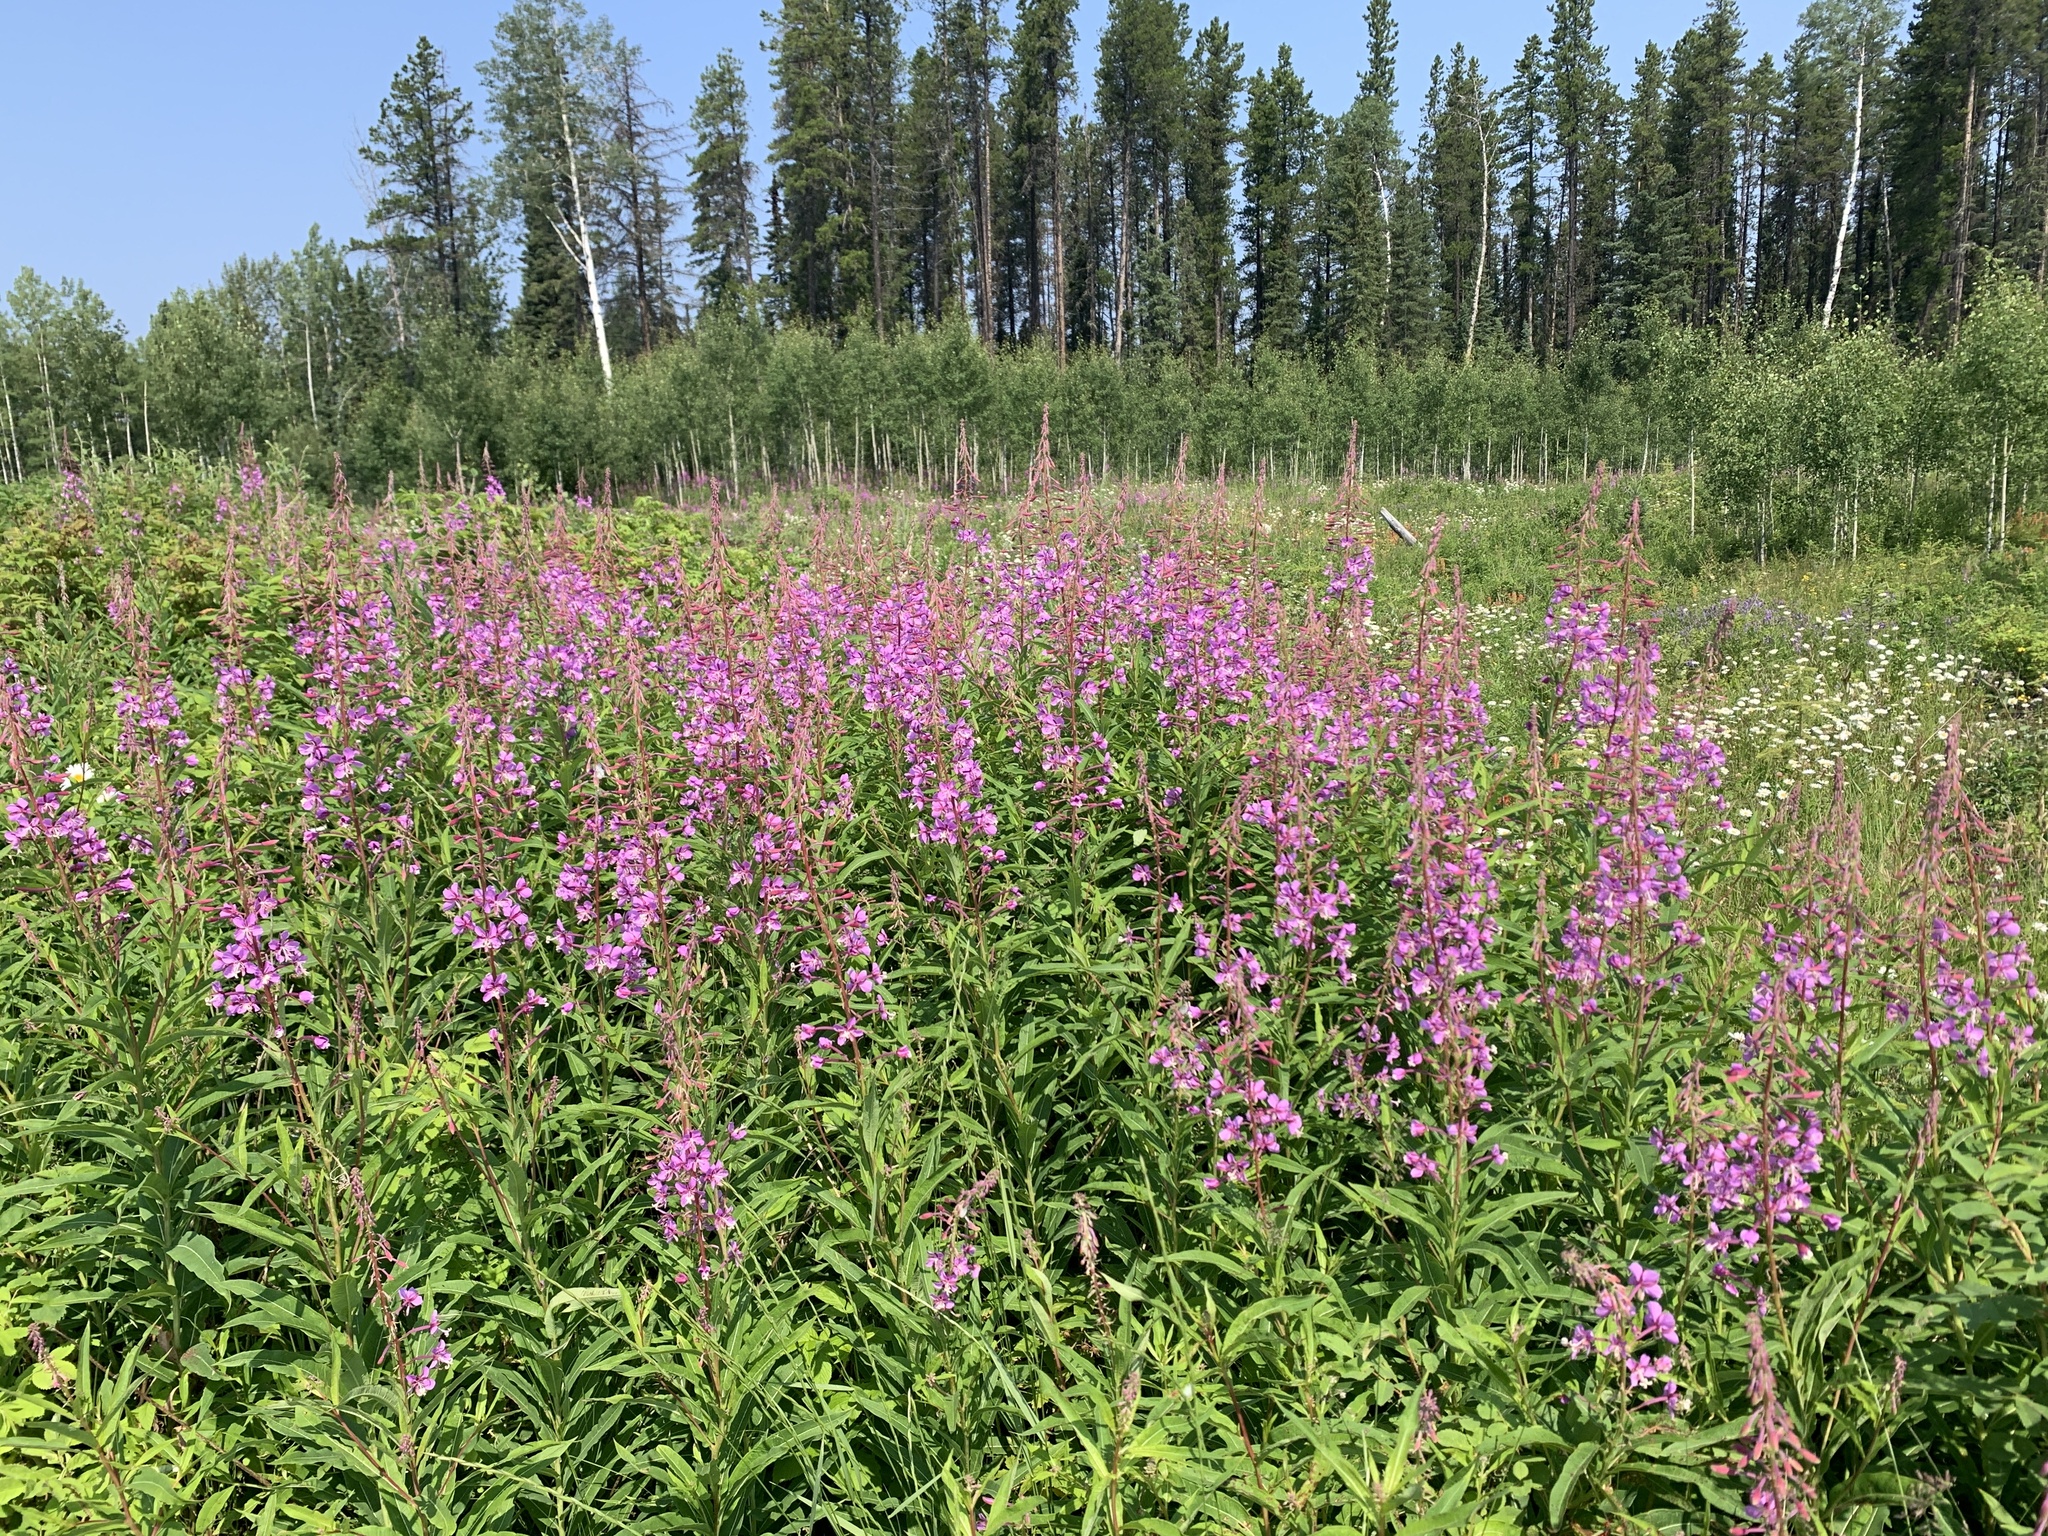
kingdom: Plantae
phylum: Tracheophyta
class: Magnoliopsida
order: Myrtales
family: Onagraceae
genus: Chamaenerion
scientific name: Chamaenerion angustifolium
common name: Fireweed
